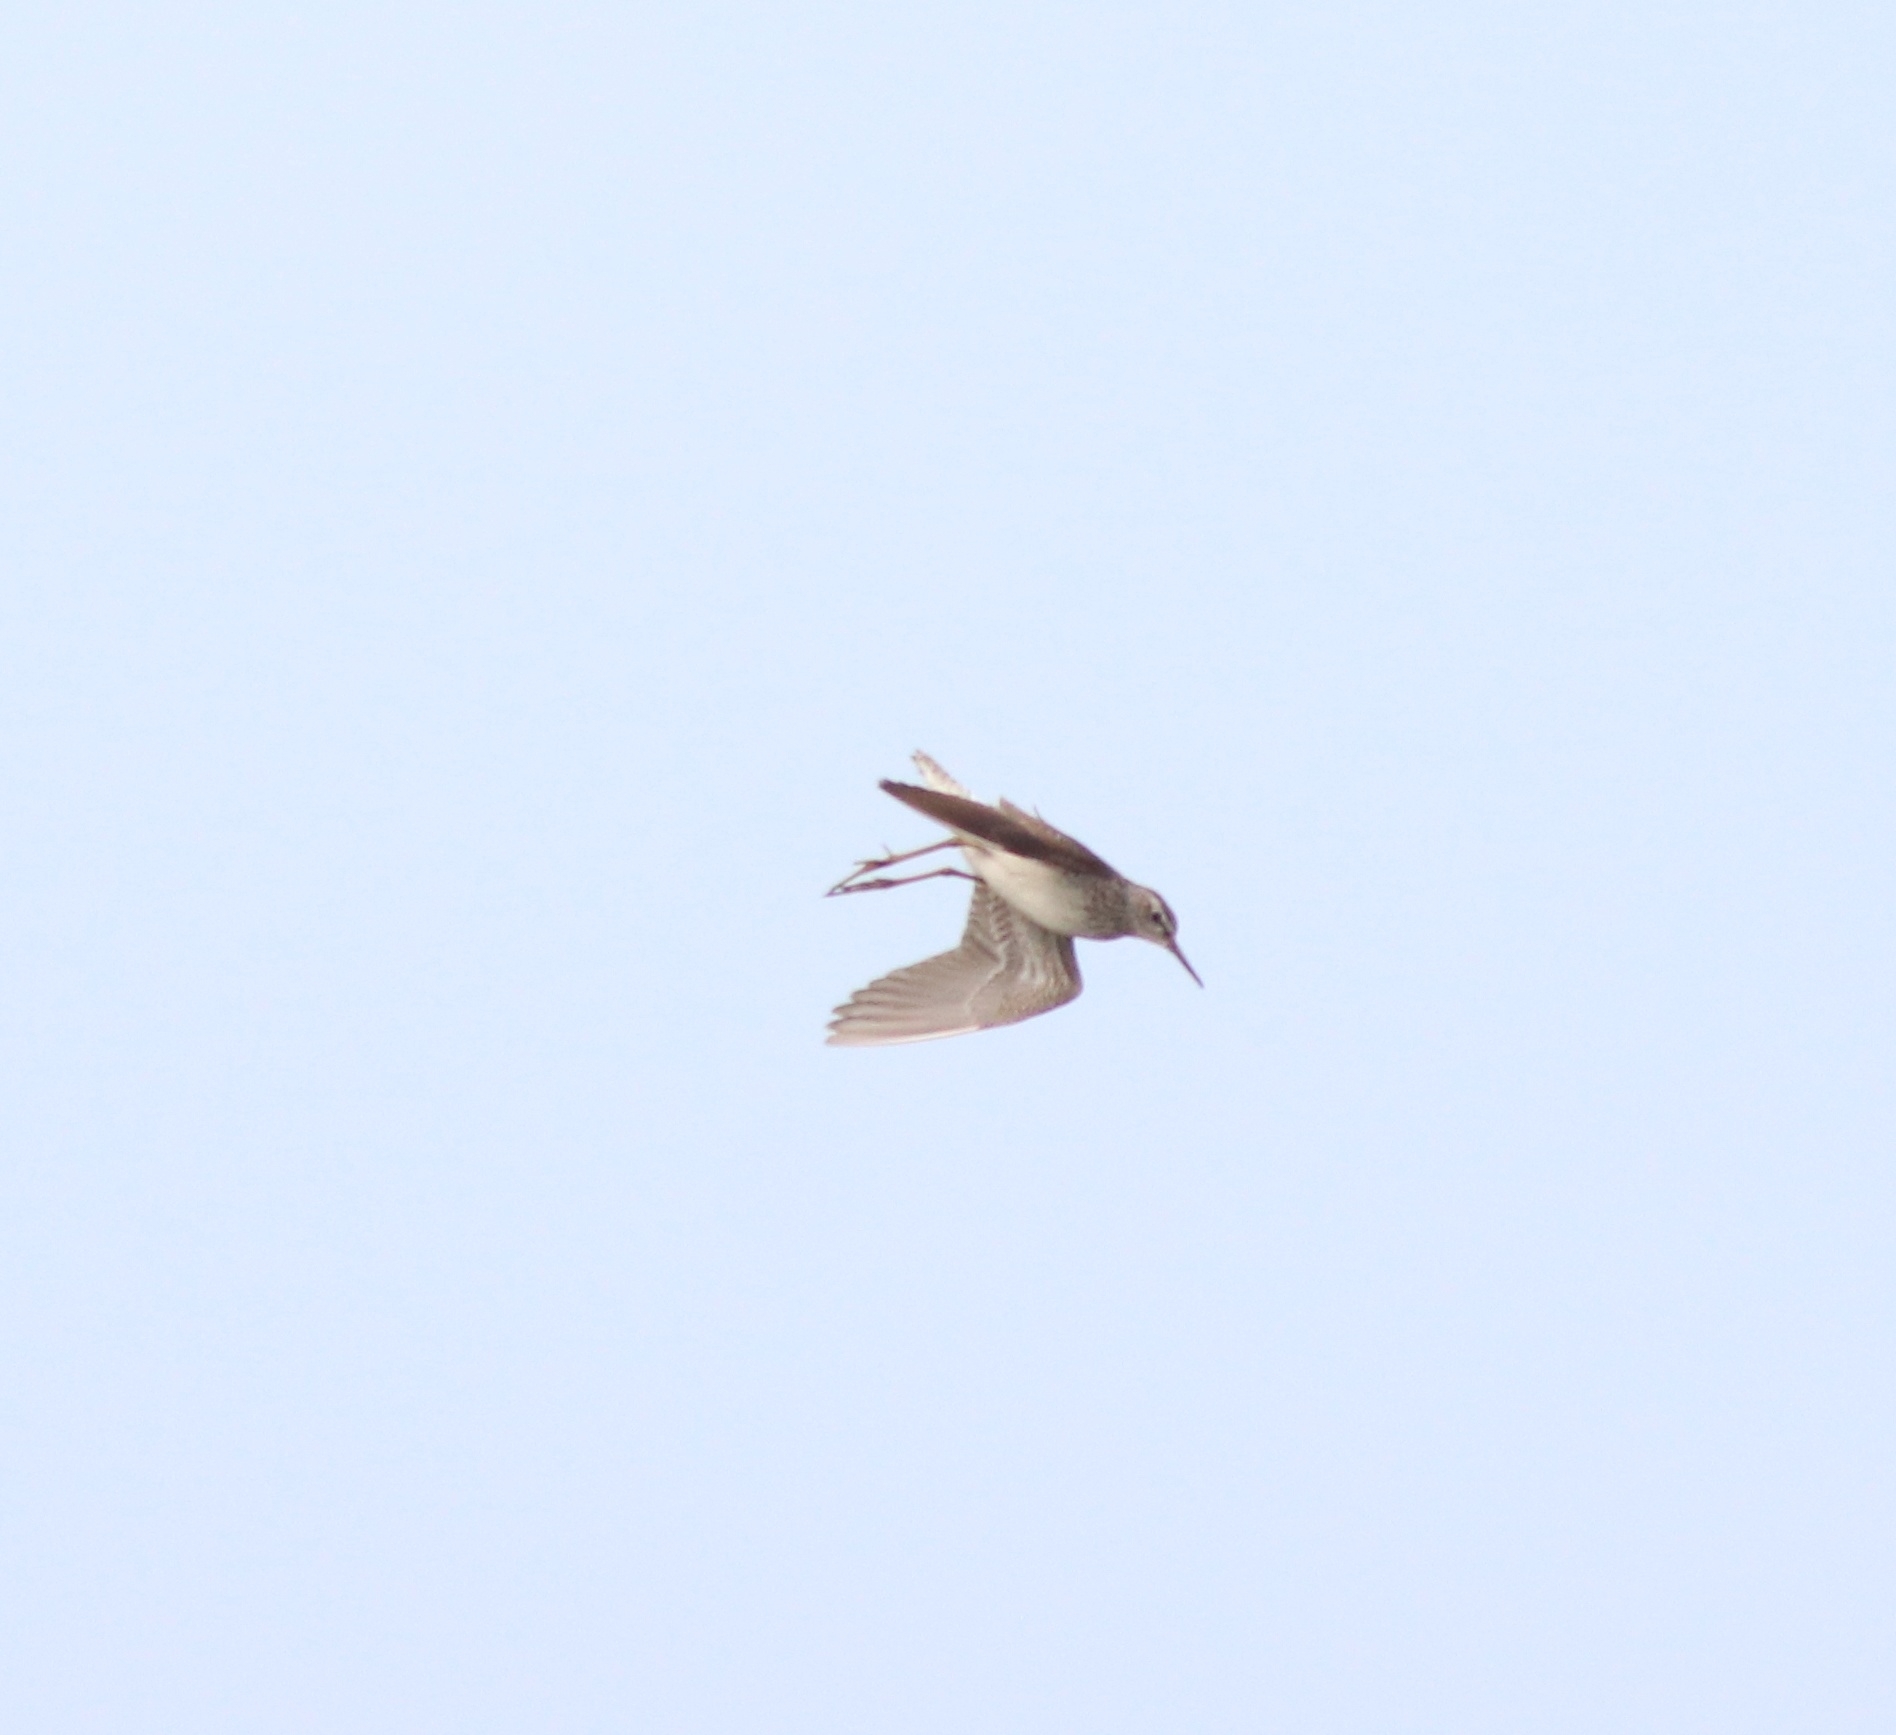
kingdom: Animalia
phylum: Chordata
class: Aves
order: Charadriiformes
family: Scolopacidae
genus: Tringa
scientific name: Tringa glareola
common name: Wood sandpiper
